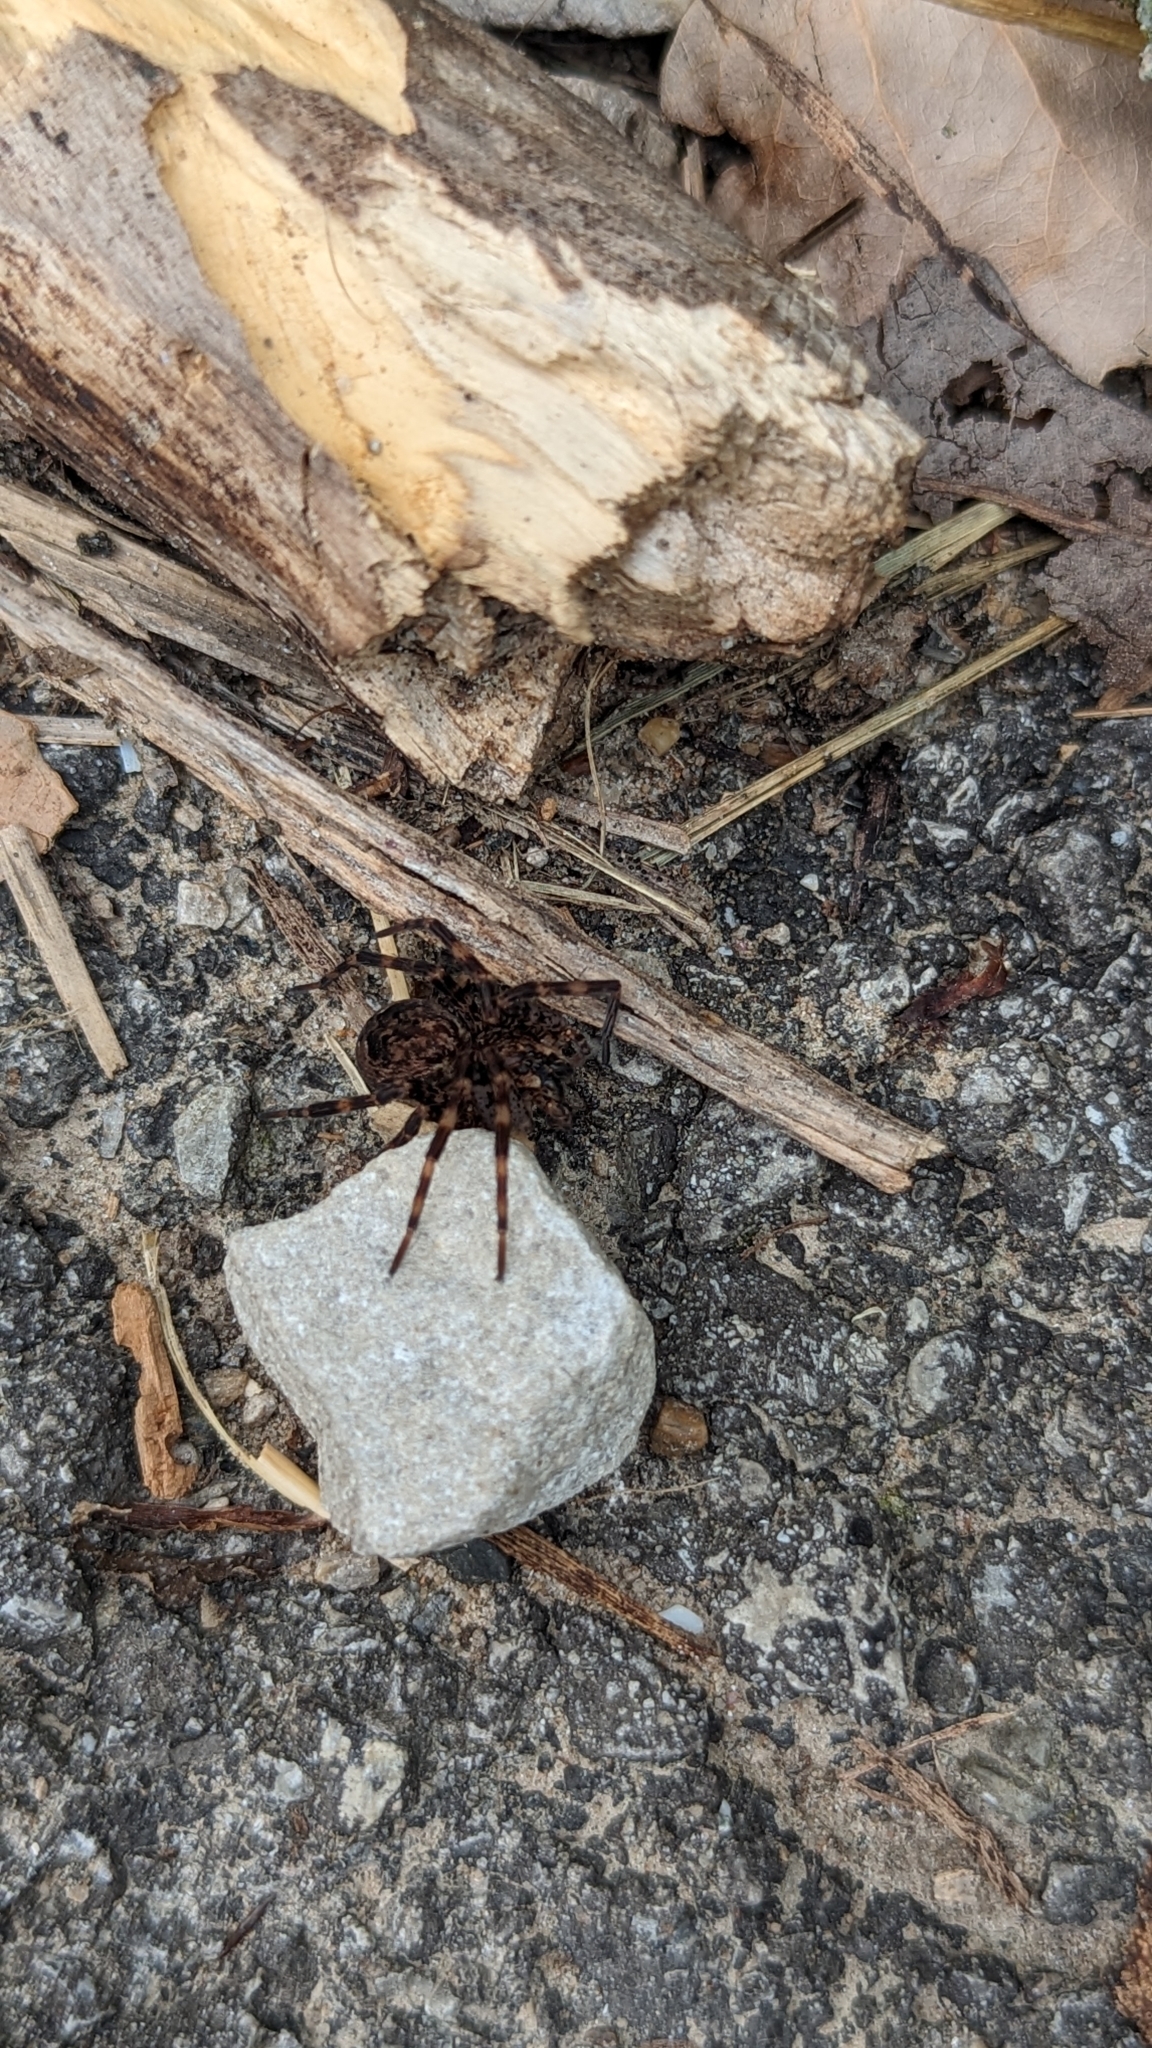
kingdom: Animalia
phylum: Arthropoda
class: Arachnida
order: Araneae
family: Pisauridae
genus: Dolomedes
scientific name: Dolomedes tenebrosus
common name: Dark fishing spider
